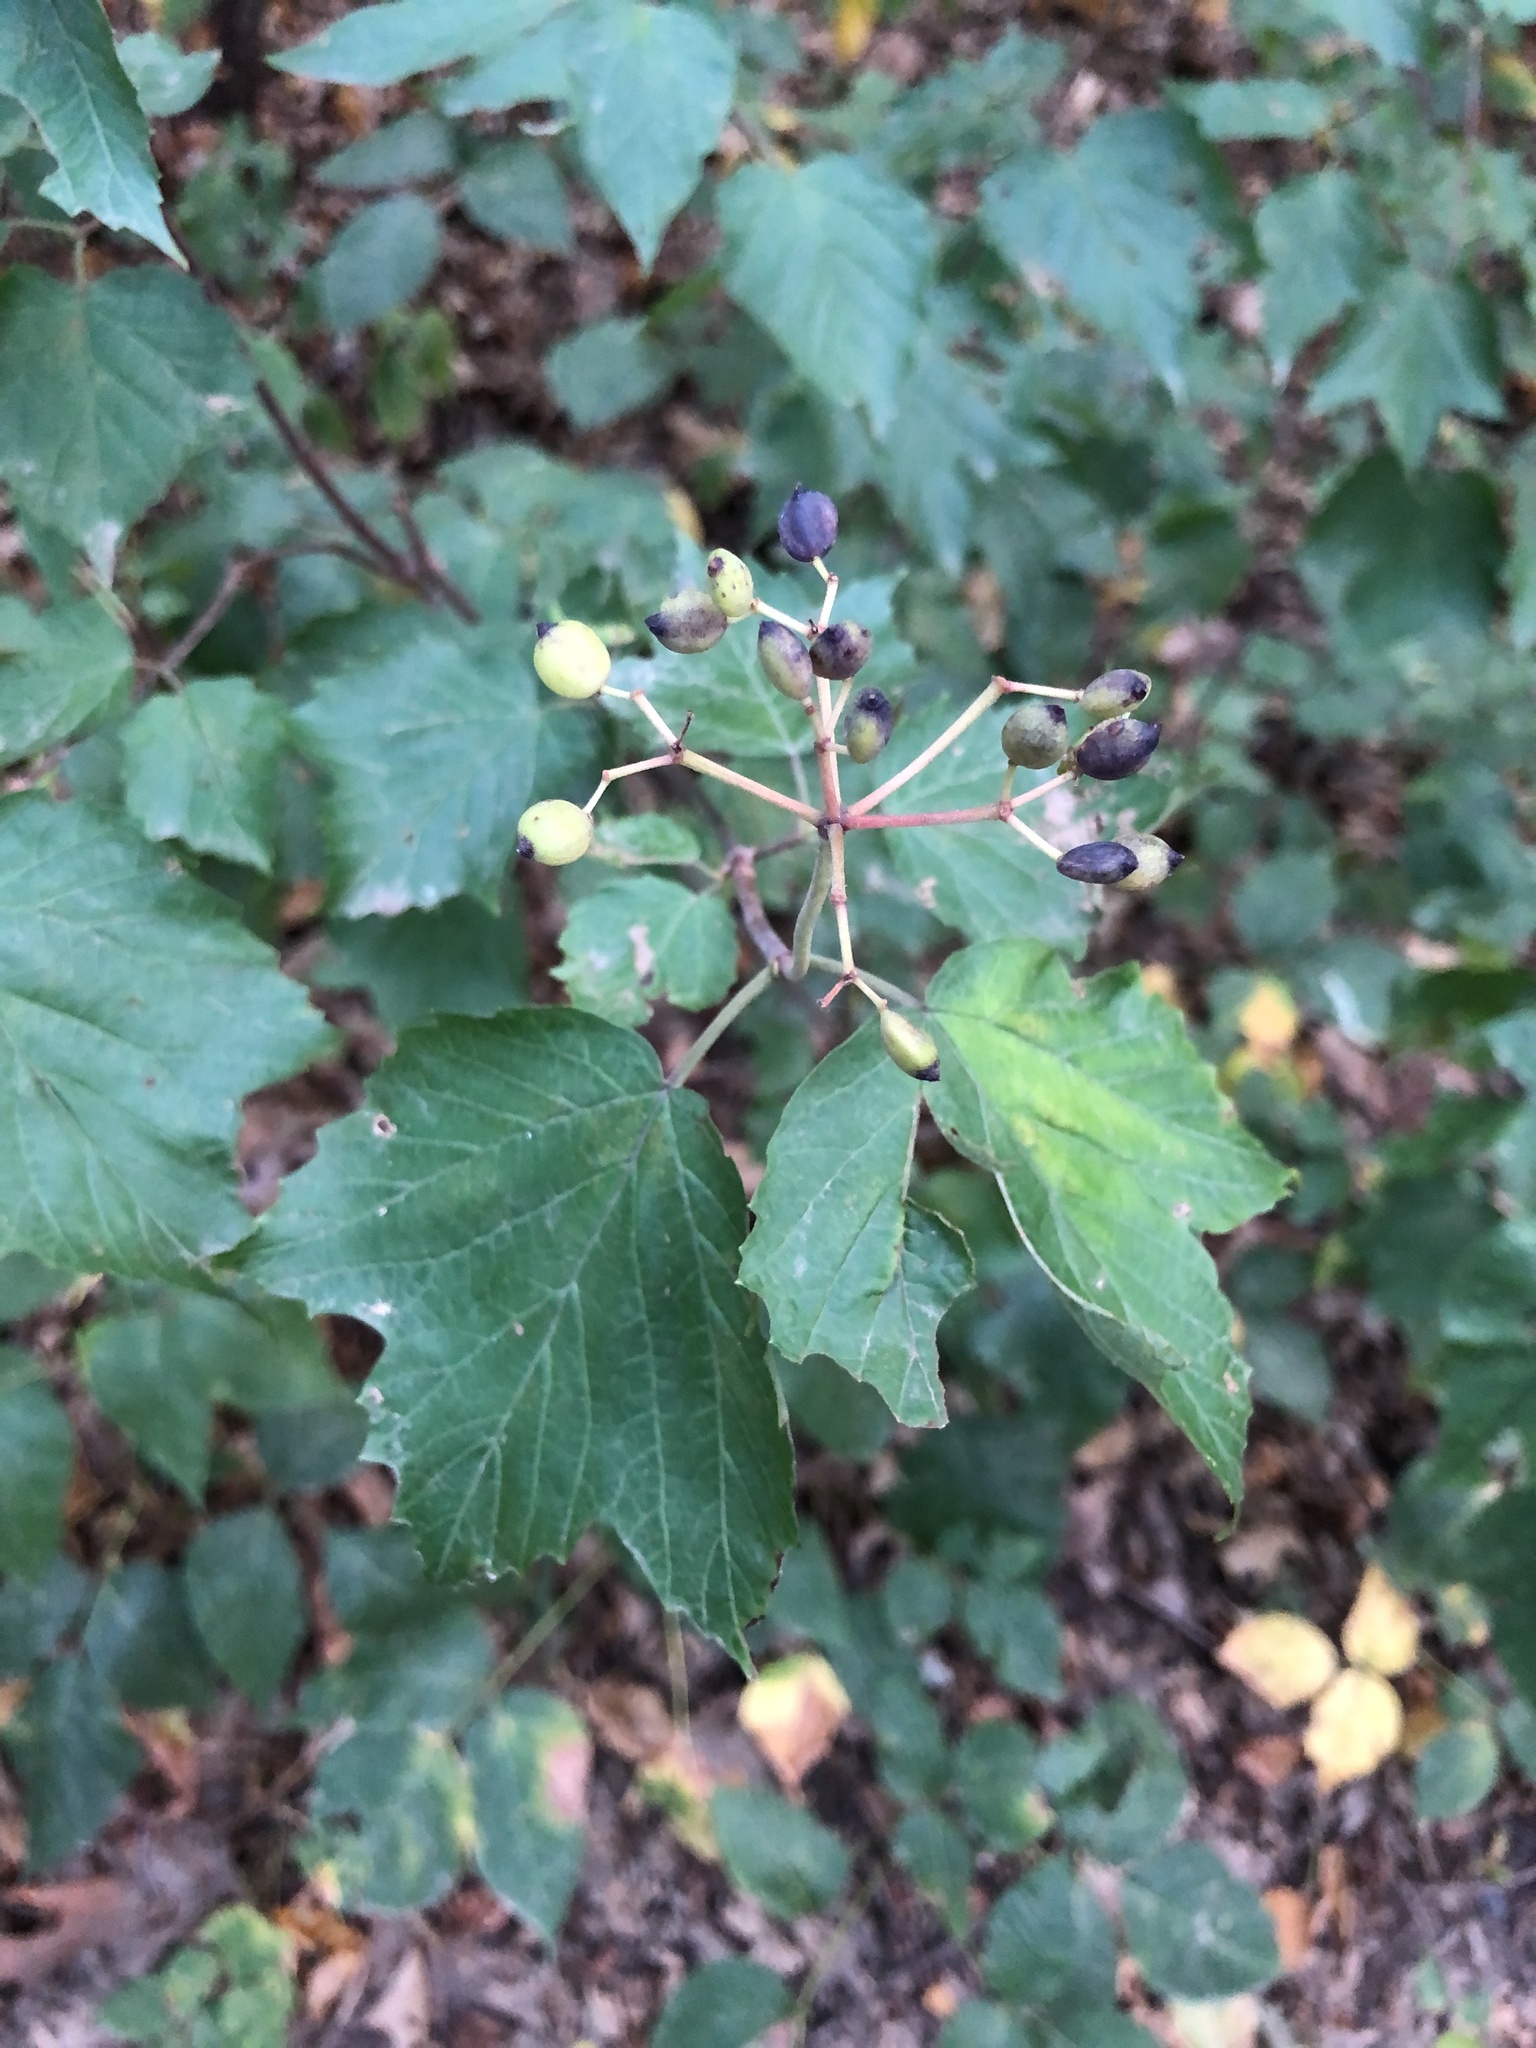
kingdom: Plantae
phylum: Tracheophyta
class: Magnoliopsida
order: Dipsacales
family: Viburnaceae
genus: Viburnum
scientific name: Viburnum acerifolium
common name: Dockmackie
